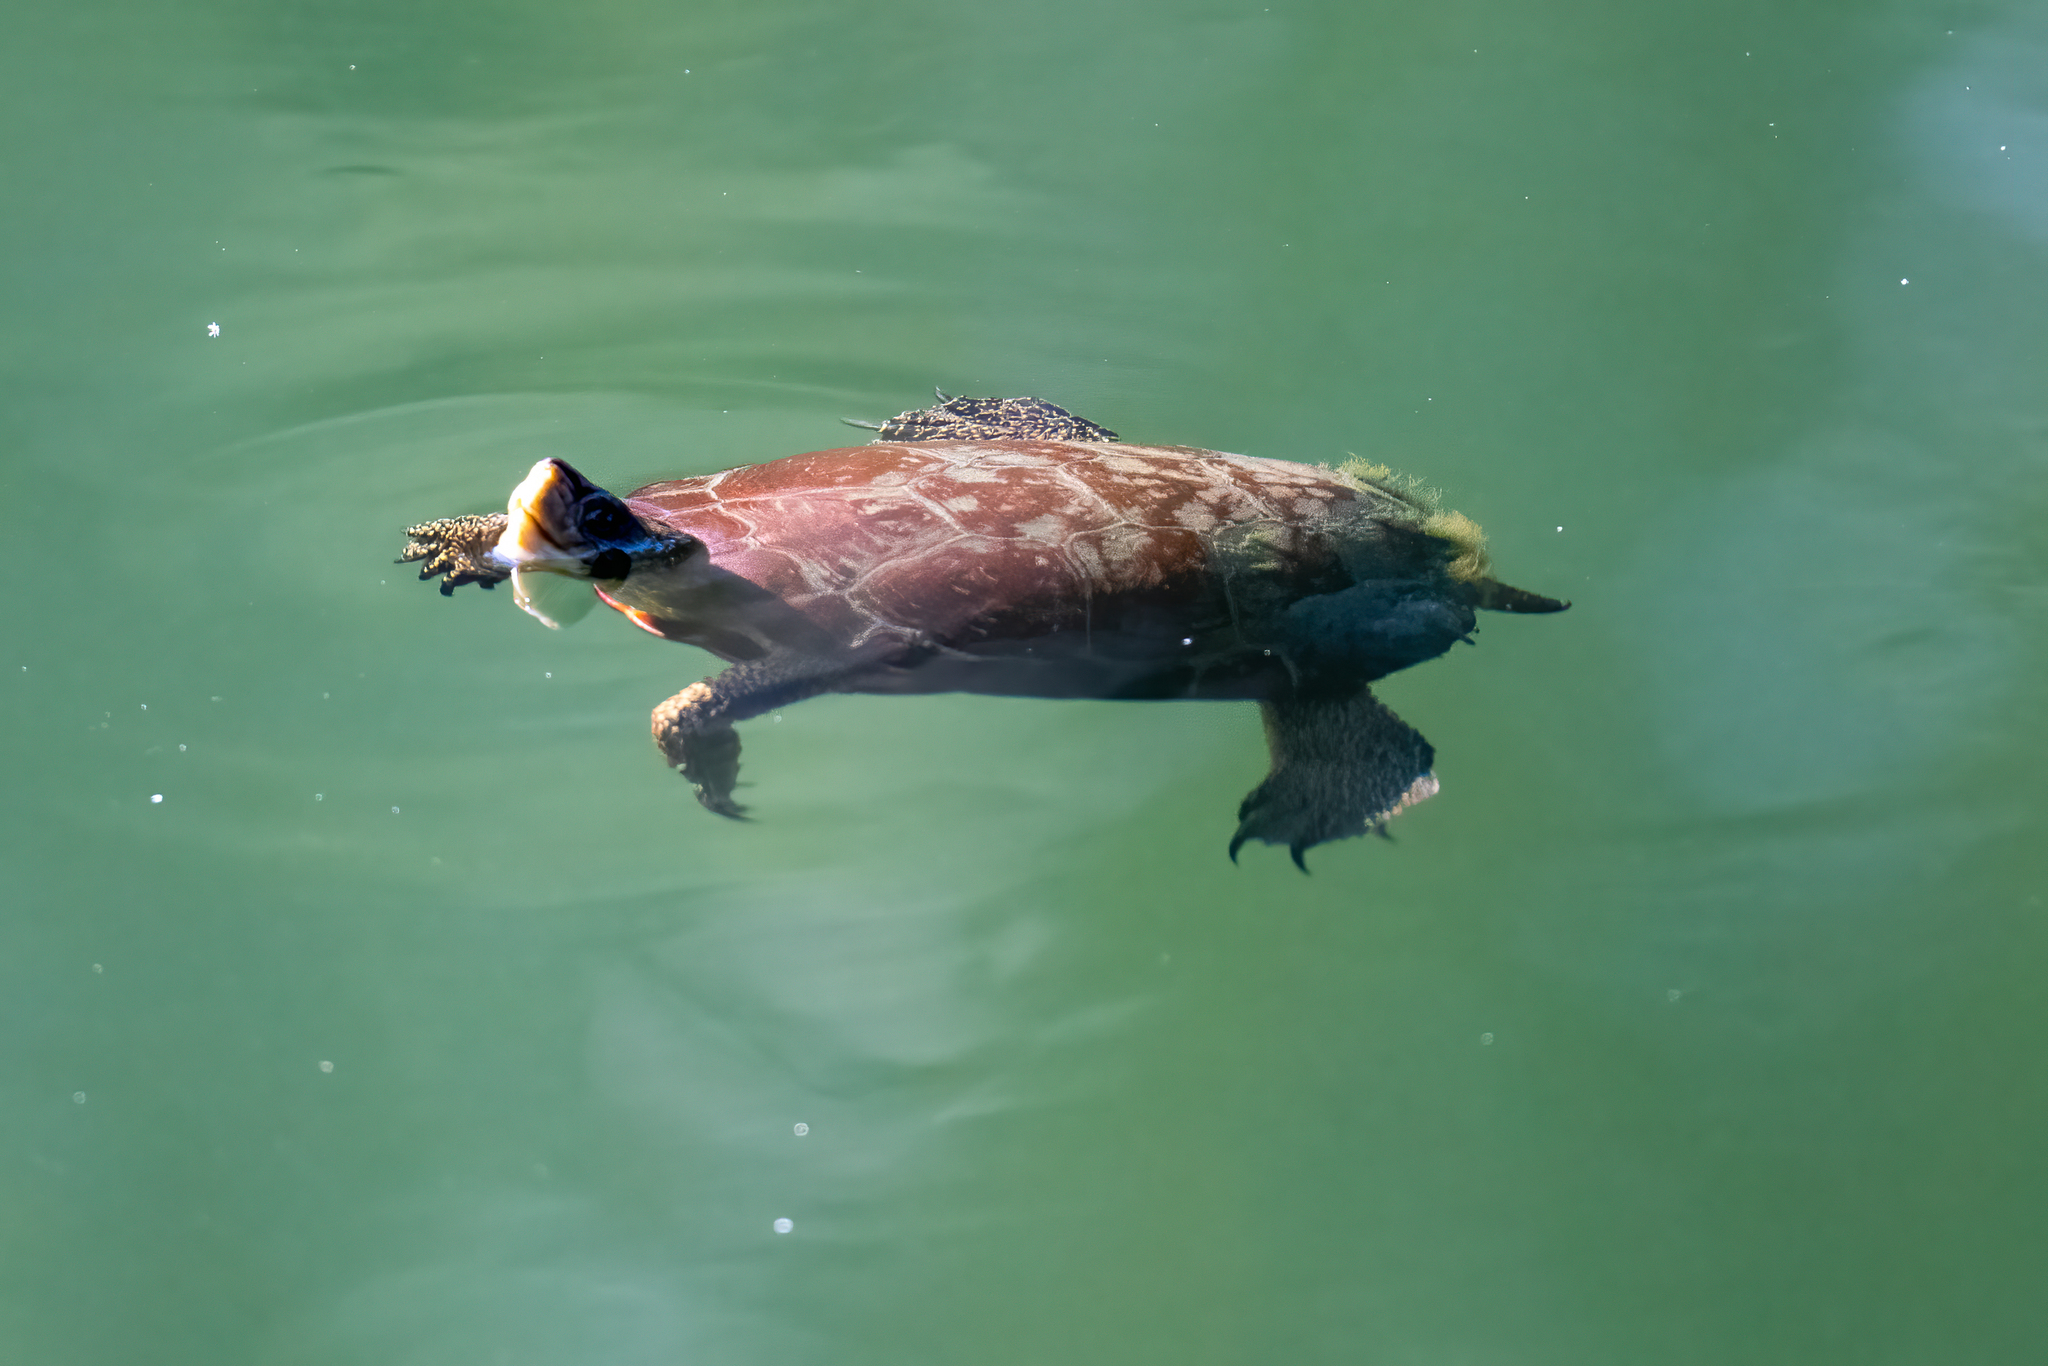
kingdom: Animalia
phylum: Chordata
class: Testudines
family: Emydidae
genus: Actinemys
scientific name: Actinemys marmorata
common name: Western pond turtle
